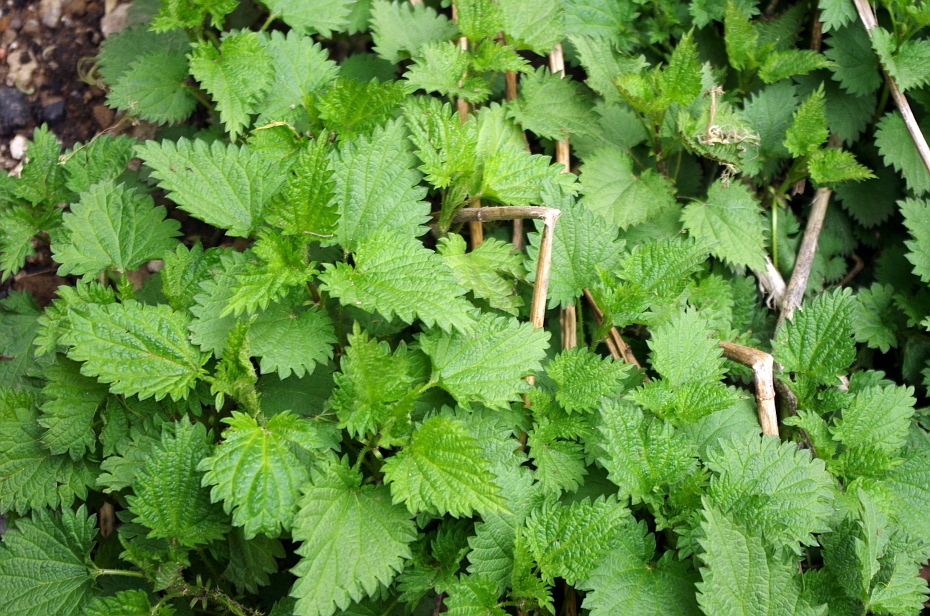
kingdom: Plantae
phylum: Tracheophyta
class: Magnoliopsida
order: Rosales
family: Urticaceae
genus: Urtica
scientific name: Urtica dioica
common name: Common nettle
